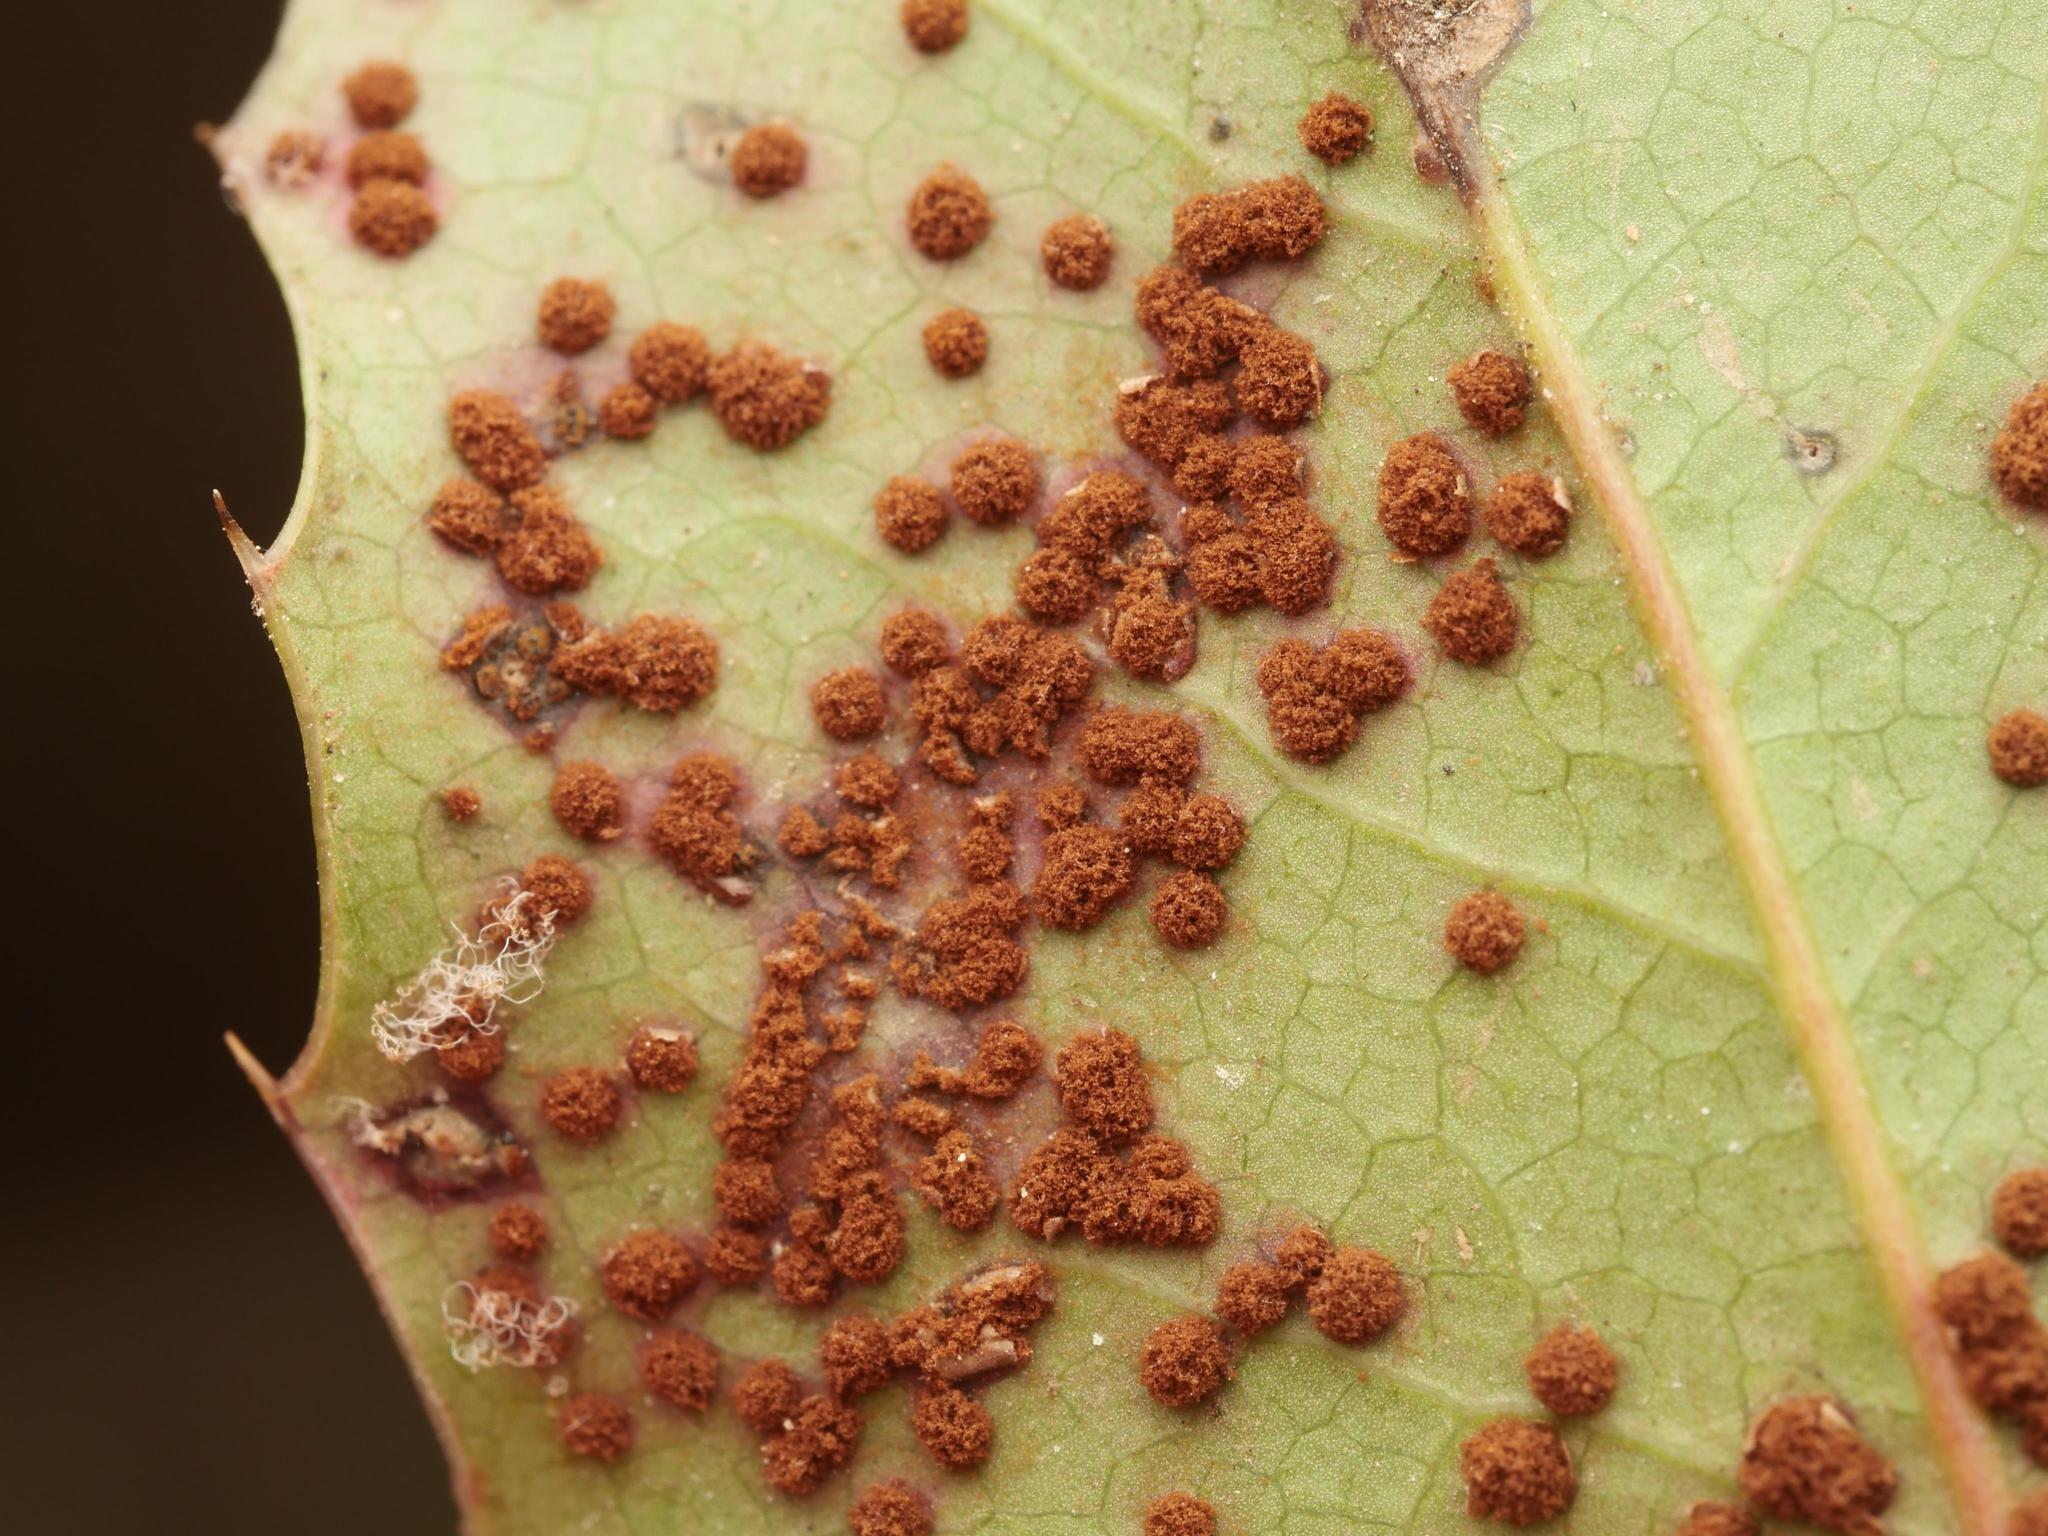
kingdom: Fungi
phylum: Basidiomycota
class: Pucciniomycetes
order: Pucciniales
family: Pucciniaceae
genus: Cumminsiella
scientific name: Cumminsiella mirabilissima
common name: Mahonia rust
